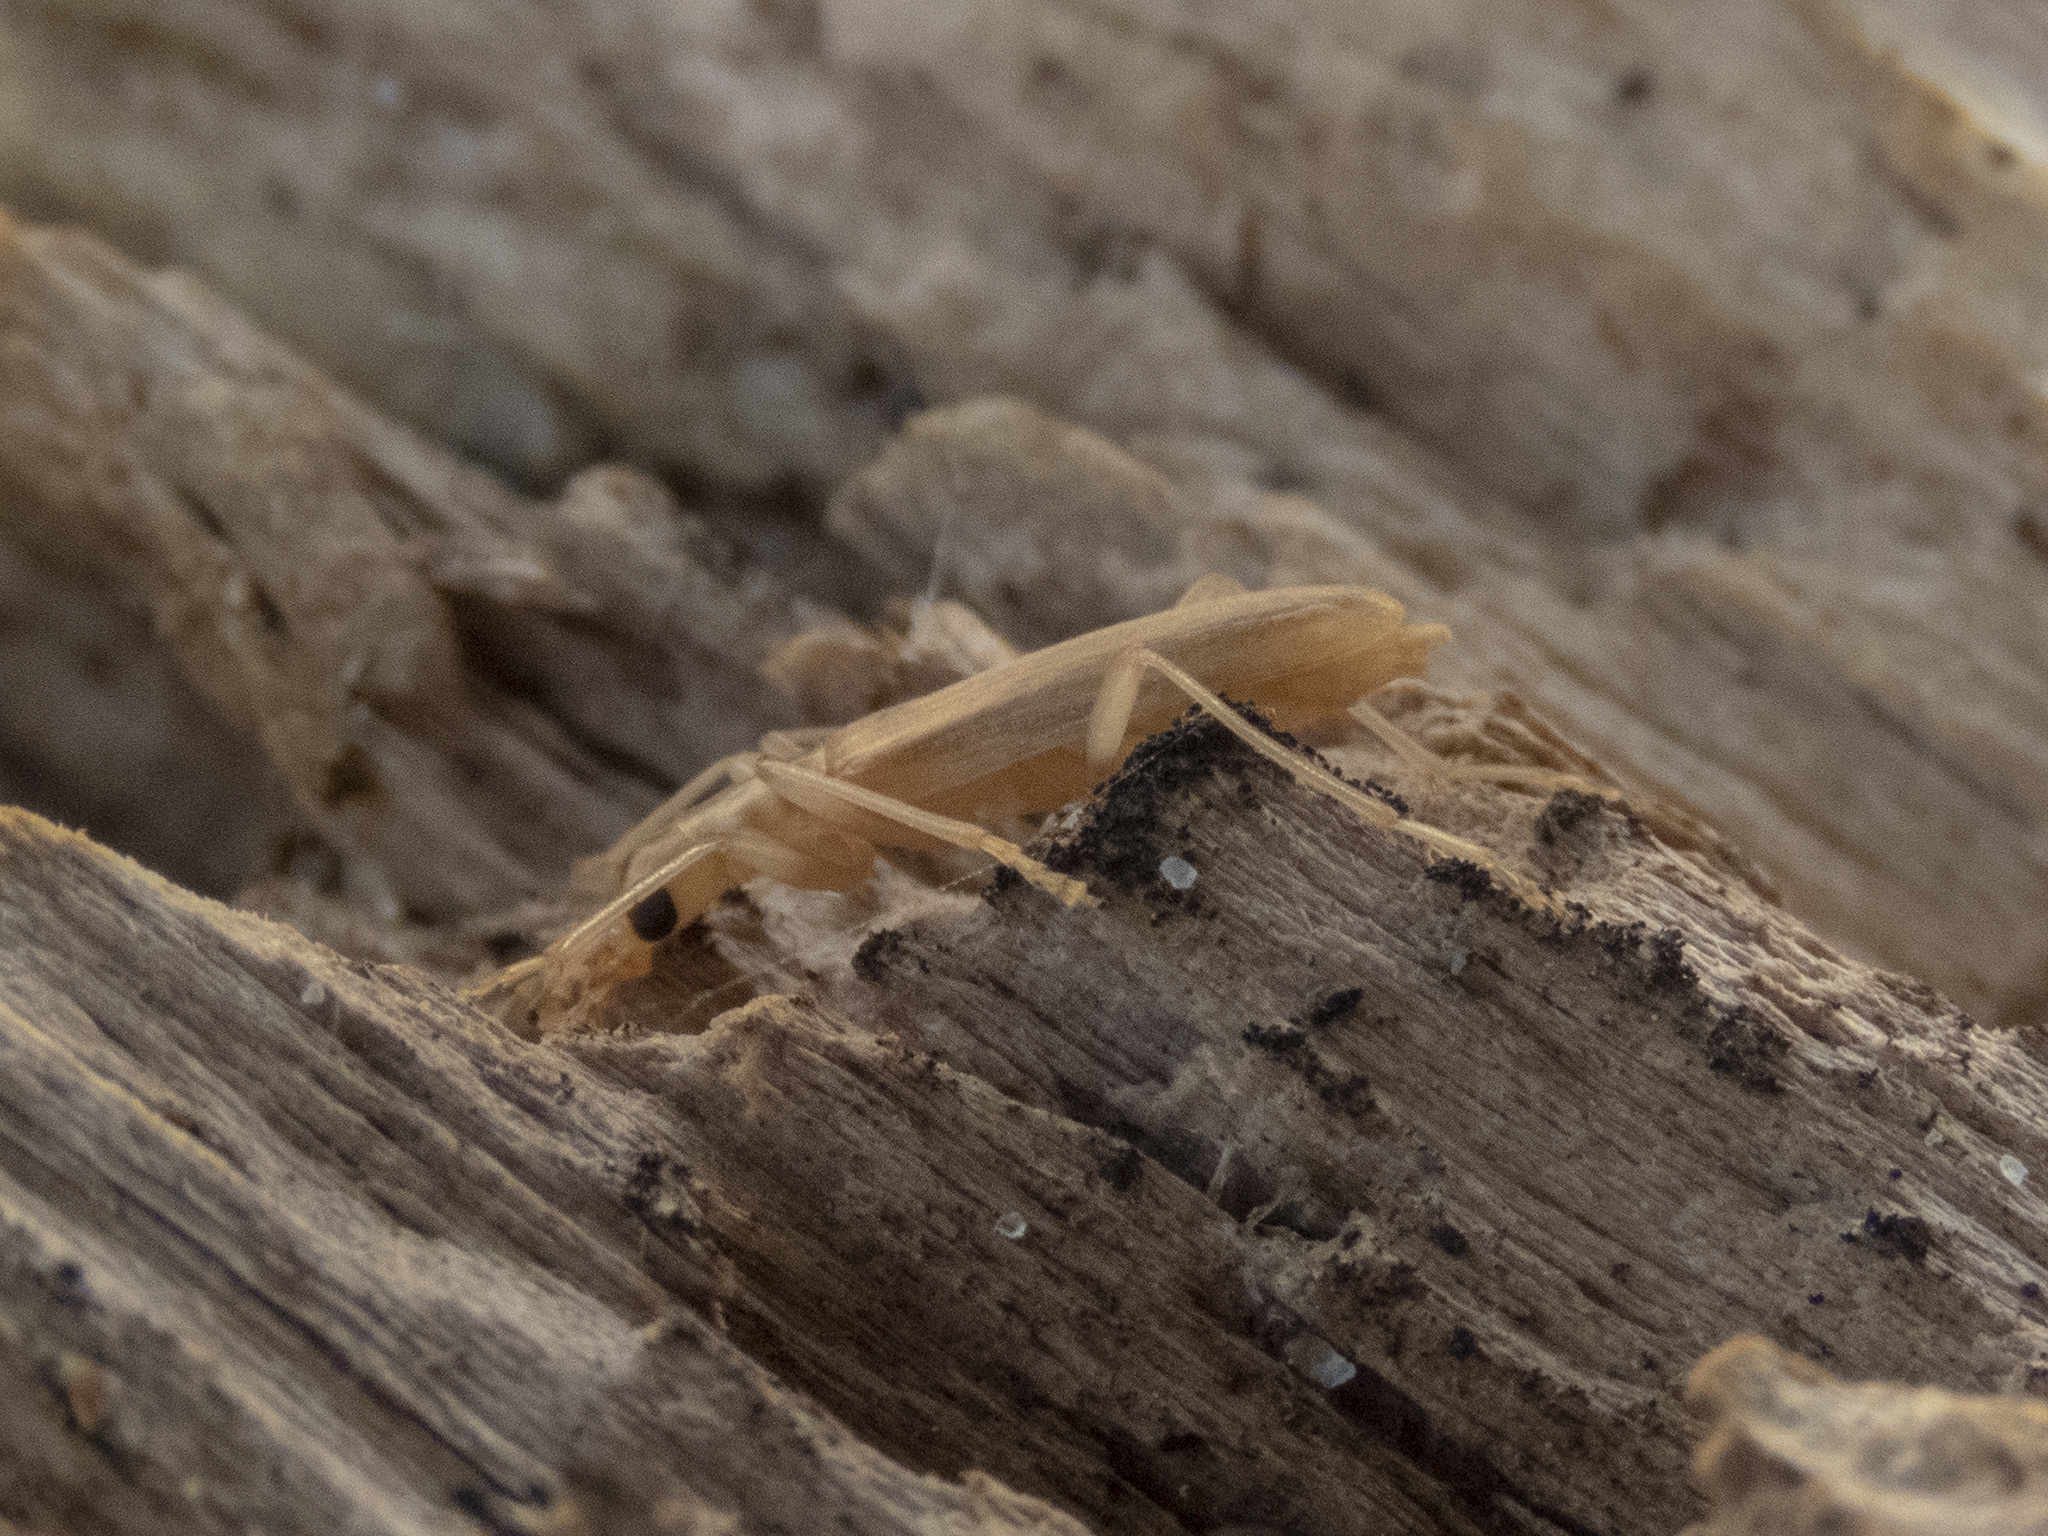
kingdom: Animalia
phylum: Arthropoda
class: Insecta
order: Coleoptera
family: Oedemeridae
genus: Baculipalpus
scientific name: Baculipalpus
